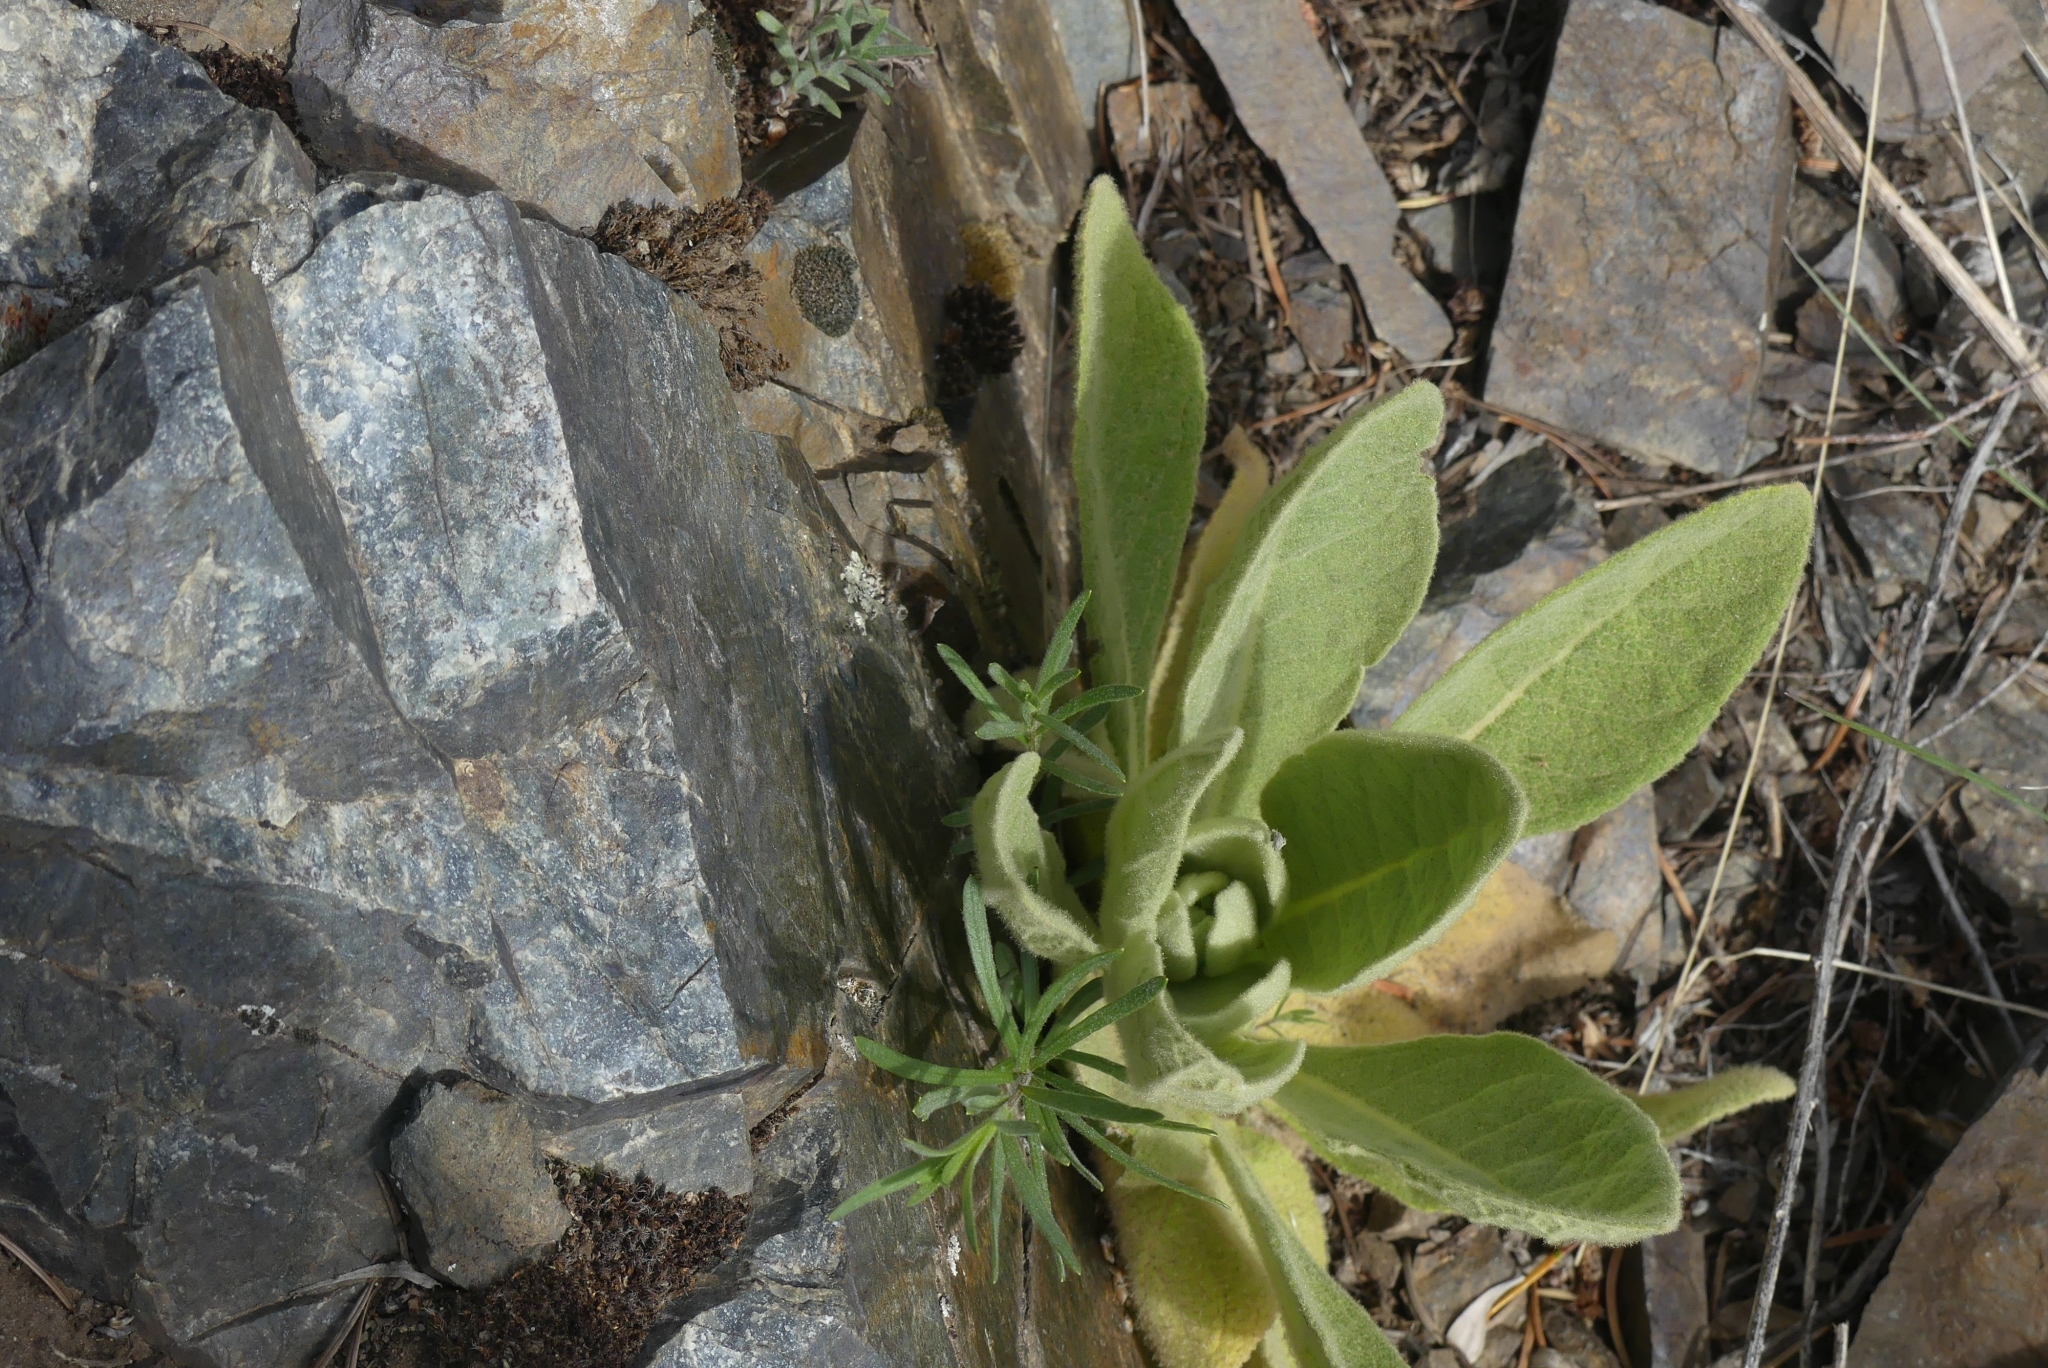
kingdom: Plantae
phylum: Tracheophyta
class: Magnoliopsida
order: Lamiales
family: Scrophulariaceae
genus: Verbascum
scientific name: Verbascum thapsus
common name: Common mullein
